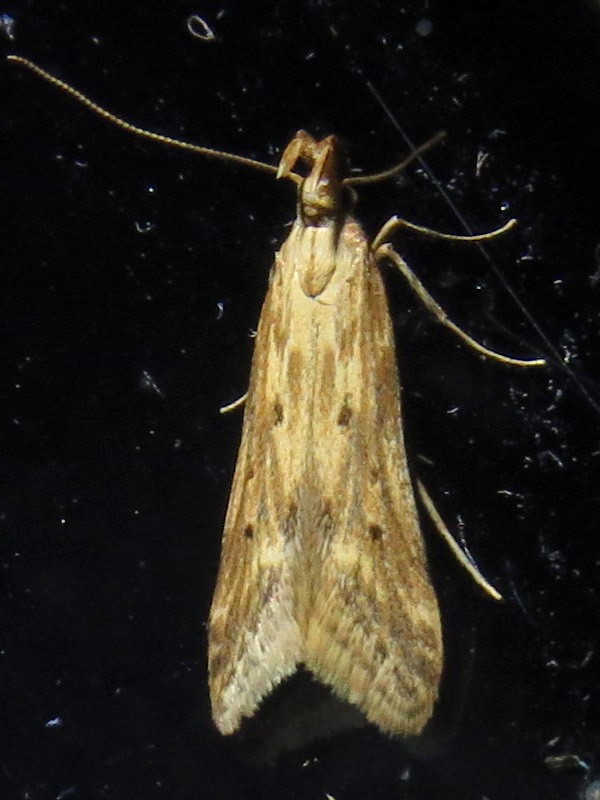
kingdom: Animalia
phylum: Arthropoda
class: Insecta
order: Lepidoptera
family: Gelechiidae
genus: Metzneria
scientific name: Metzneria lappella
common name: Burdock neb
